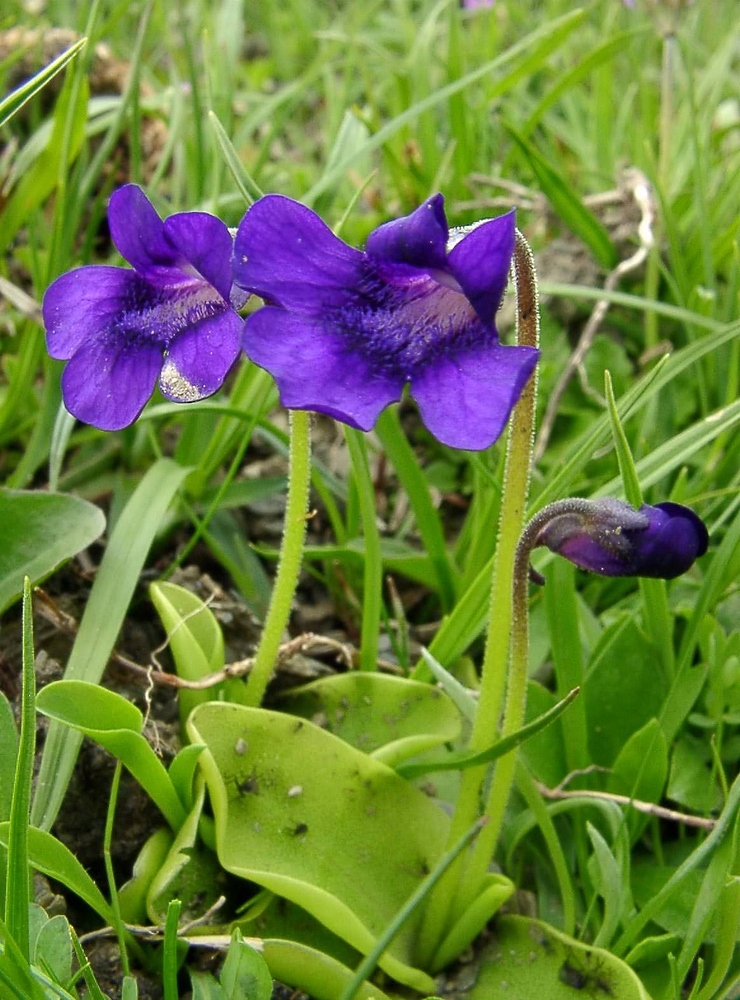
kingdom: Plantae
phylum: Tracheophyta
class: Magnoliopsida
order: Lamiales
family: Lentibulariaceae
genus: Pinguicula
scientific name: Pinguicula grandiflora
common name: Large-flowered butterwort
